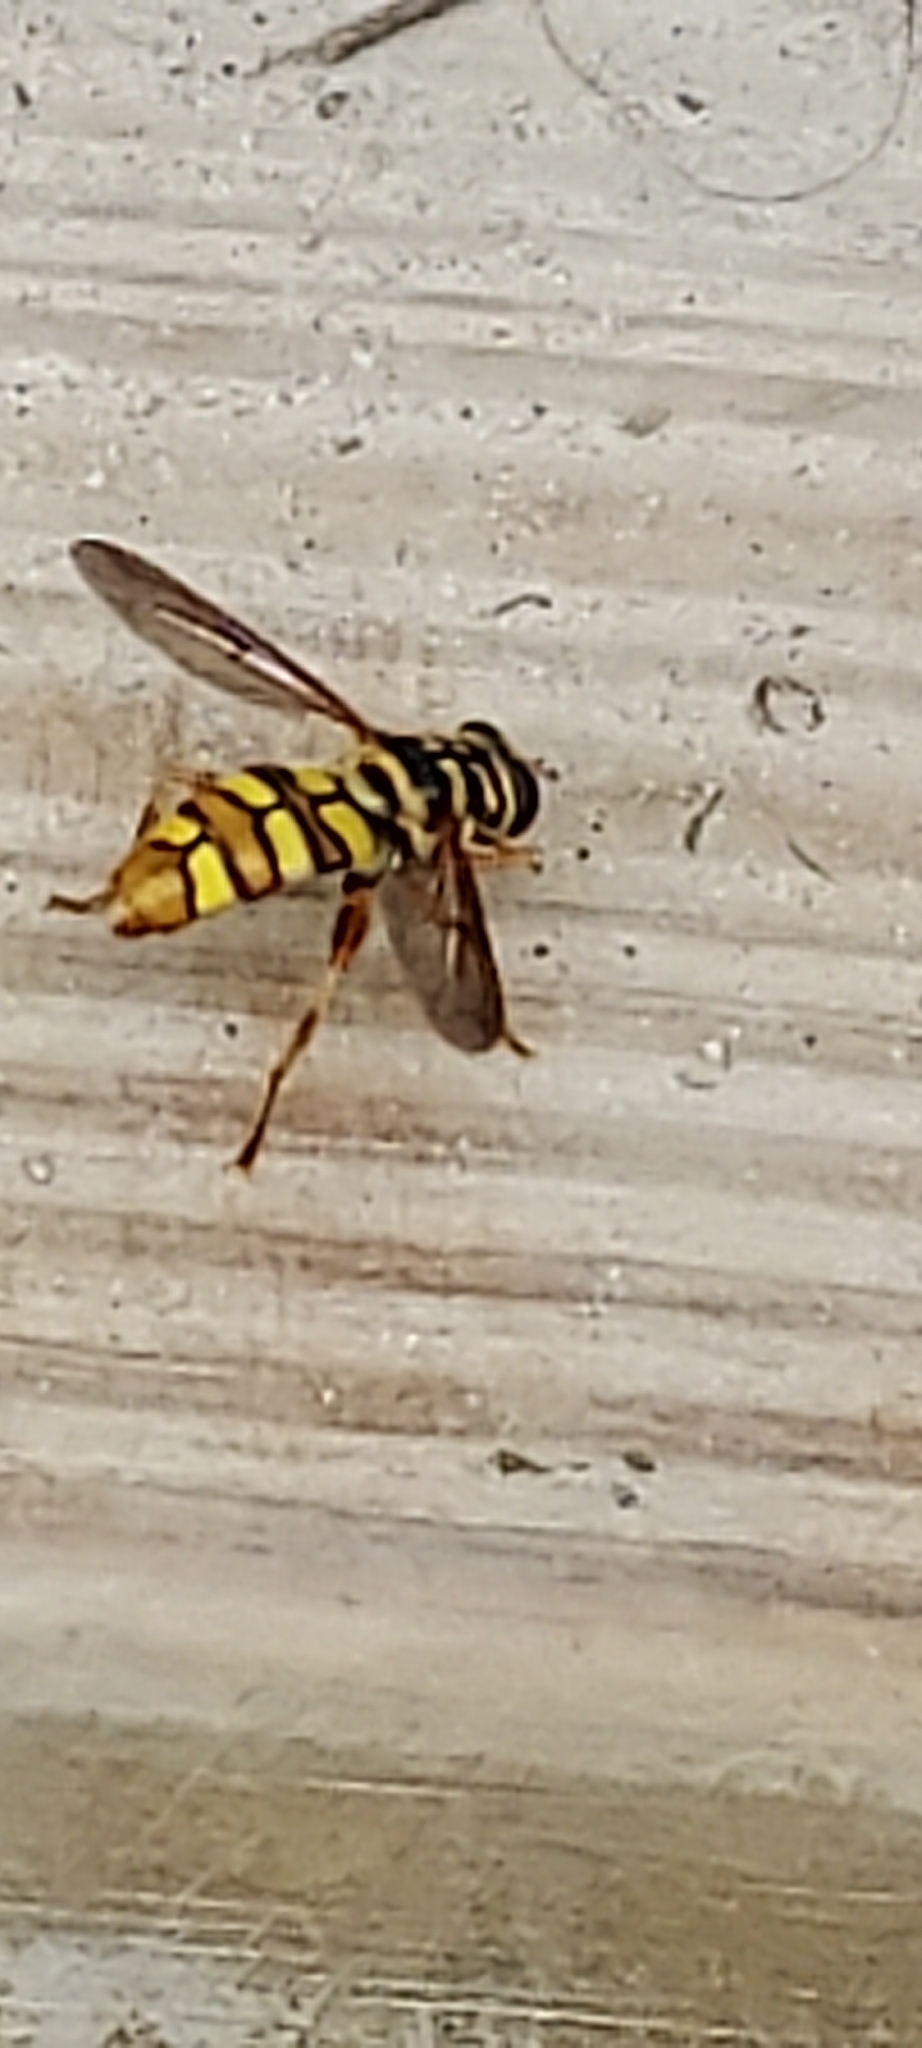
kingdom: Animalia
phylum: Arthropoda
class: Insecta
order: Diptera
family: Syrphidae
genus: Milesia
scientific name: Milesia virginiensis
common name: Virginia giant
